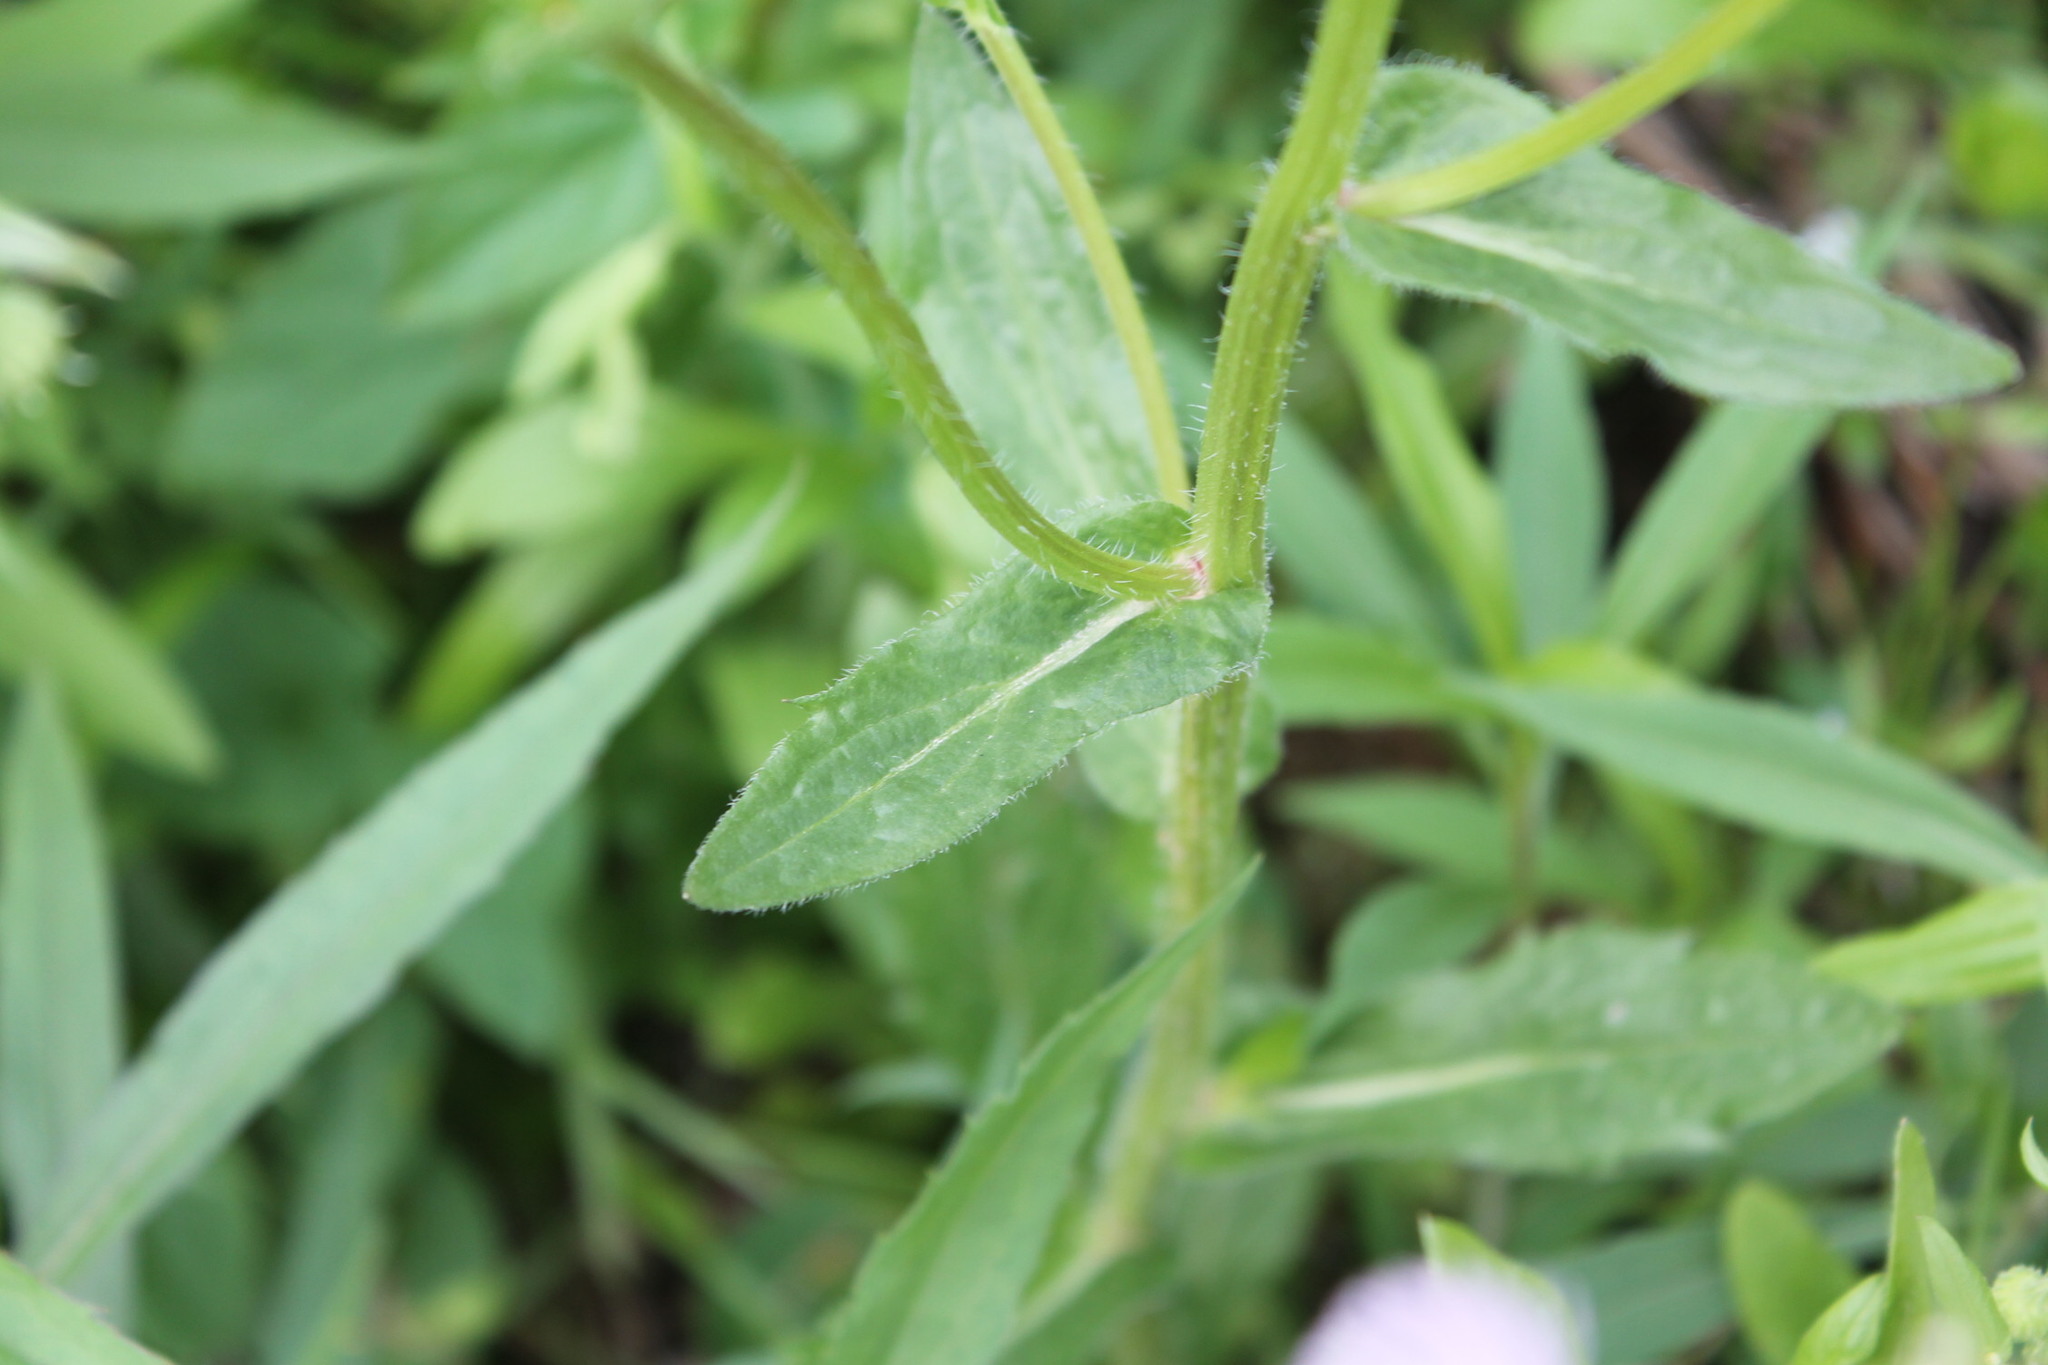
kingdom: Plantae
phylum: Tracheophyta
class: Magnoliopsida
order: Asterales
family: Asteraceae
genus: Erigeron
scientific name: Erigeron philadelphicus
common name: Robin's-plantain
